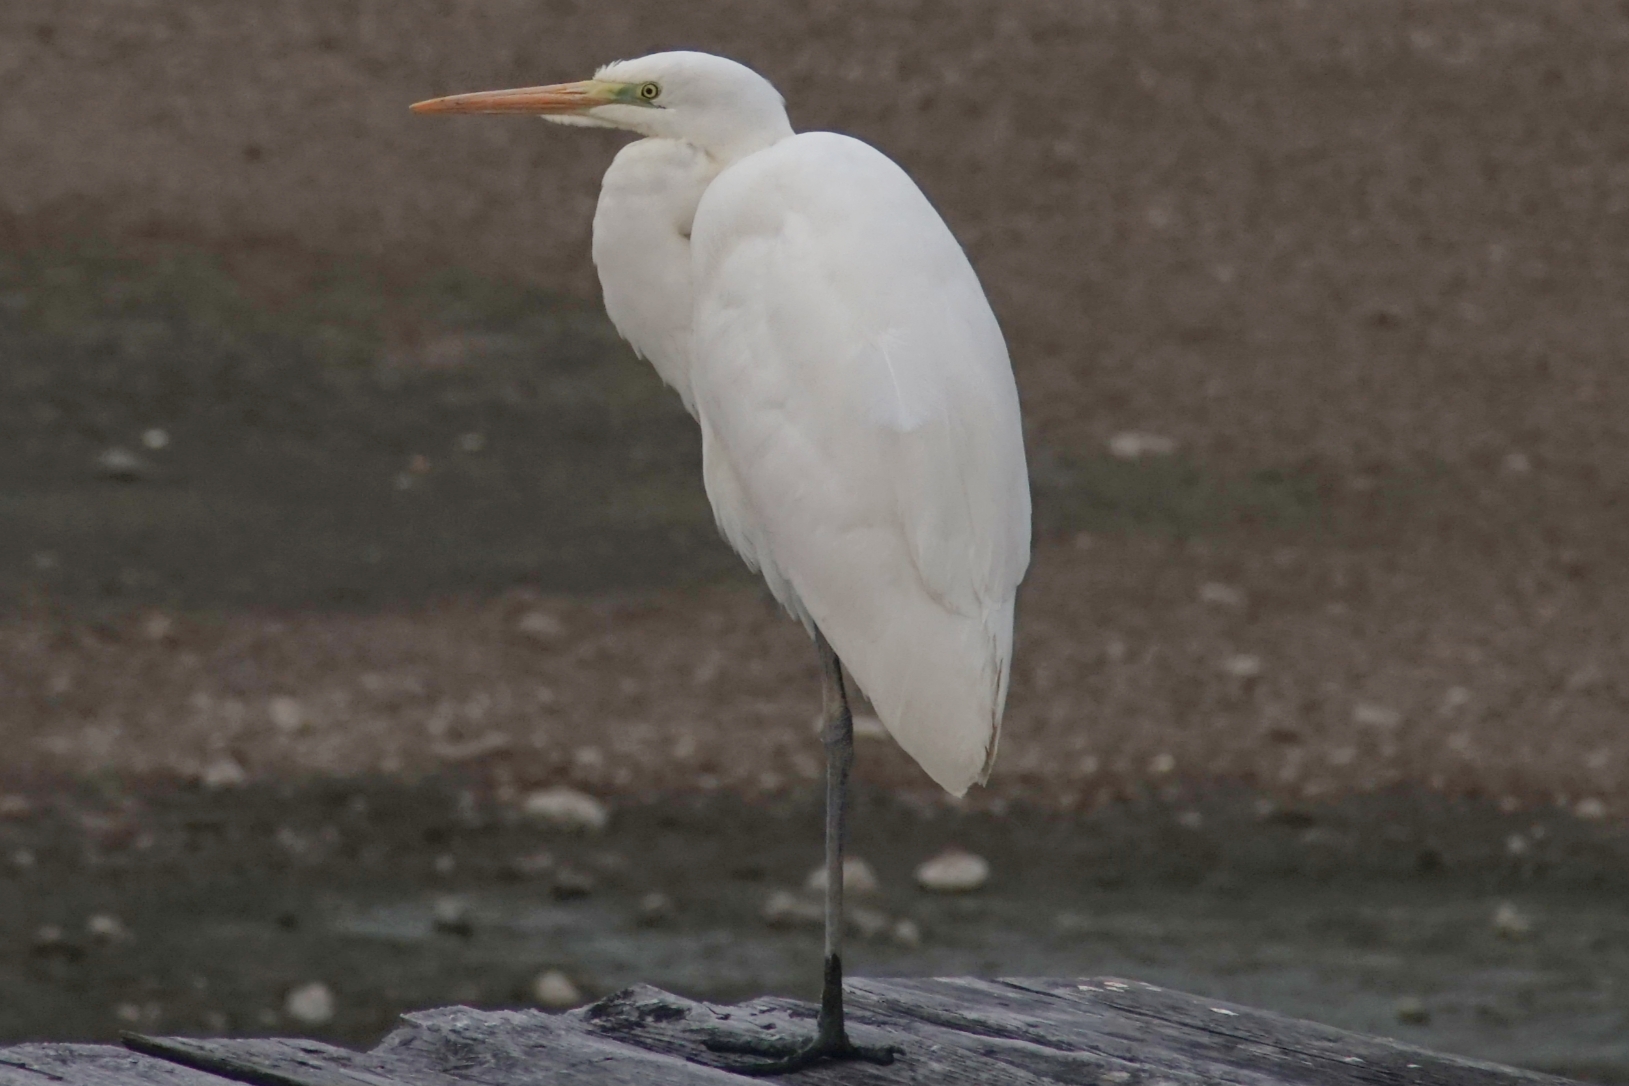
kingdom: Animalia
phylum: Chordata
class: Aves
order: Pelecaniformes
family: Ardeidae
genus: Ardea
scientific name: Ardea alba
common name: Great egret
